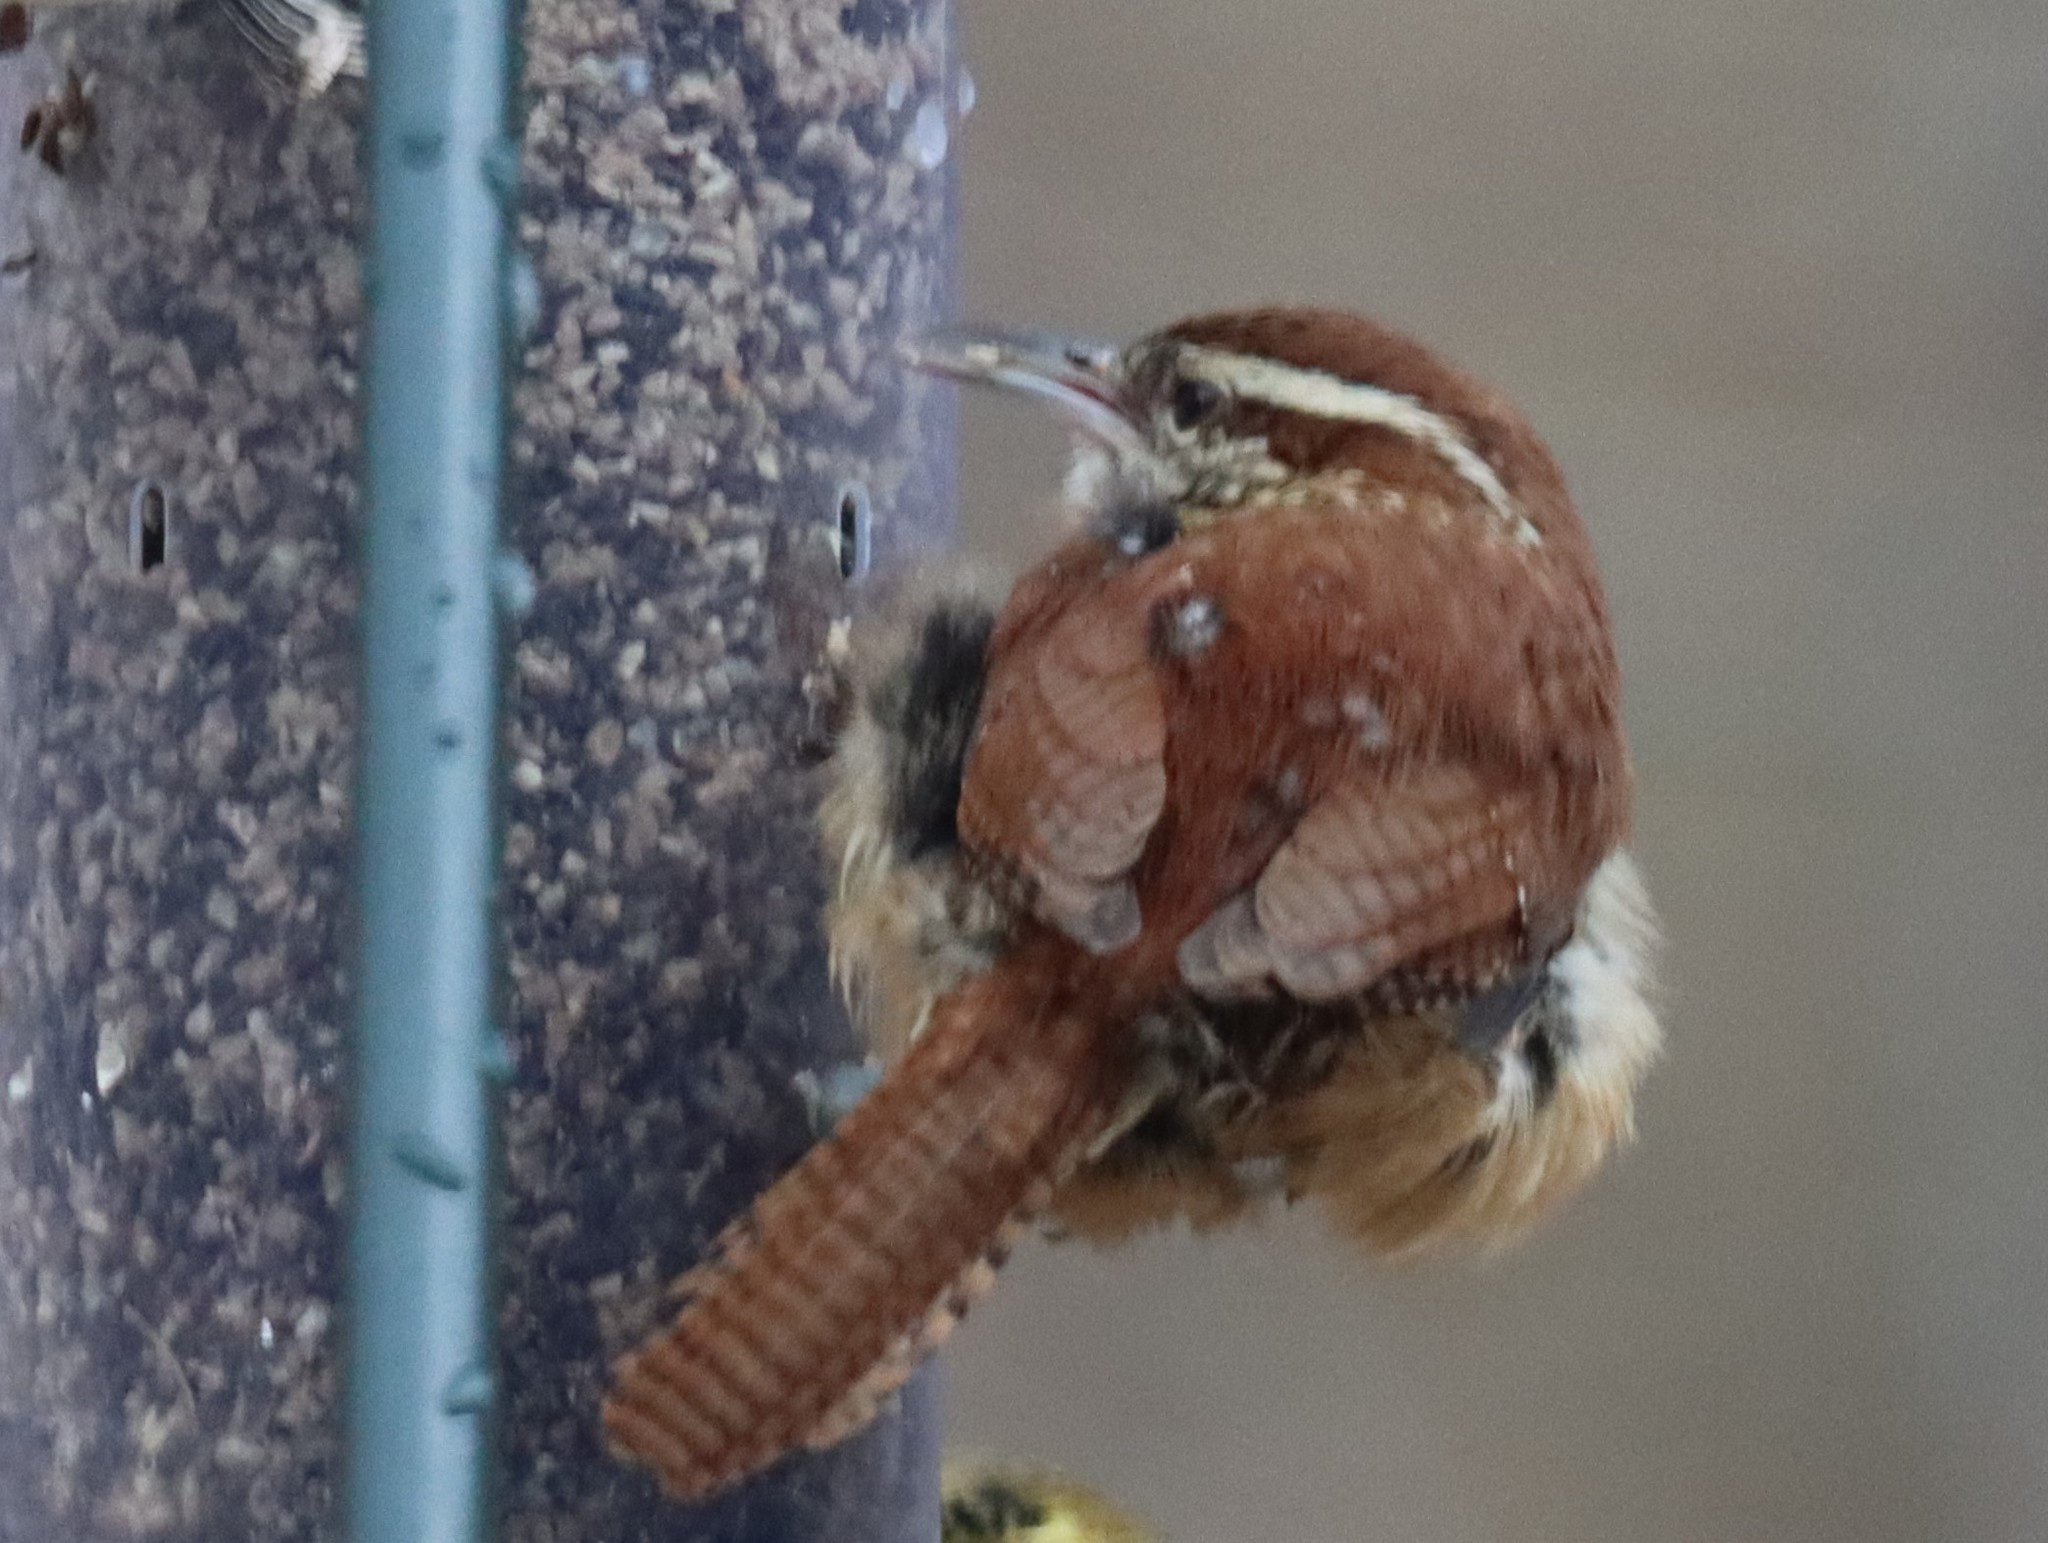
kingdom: Animalia
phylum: Chordata
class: Aves
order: Passeriformes
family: Troglodytidae
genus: Thryothorus
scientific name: Thryothorus ludovicianus
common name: Carolina wren
